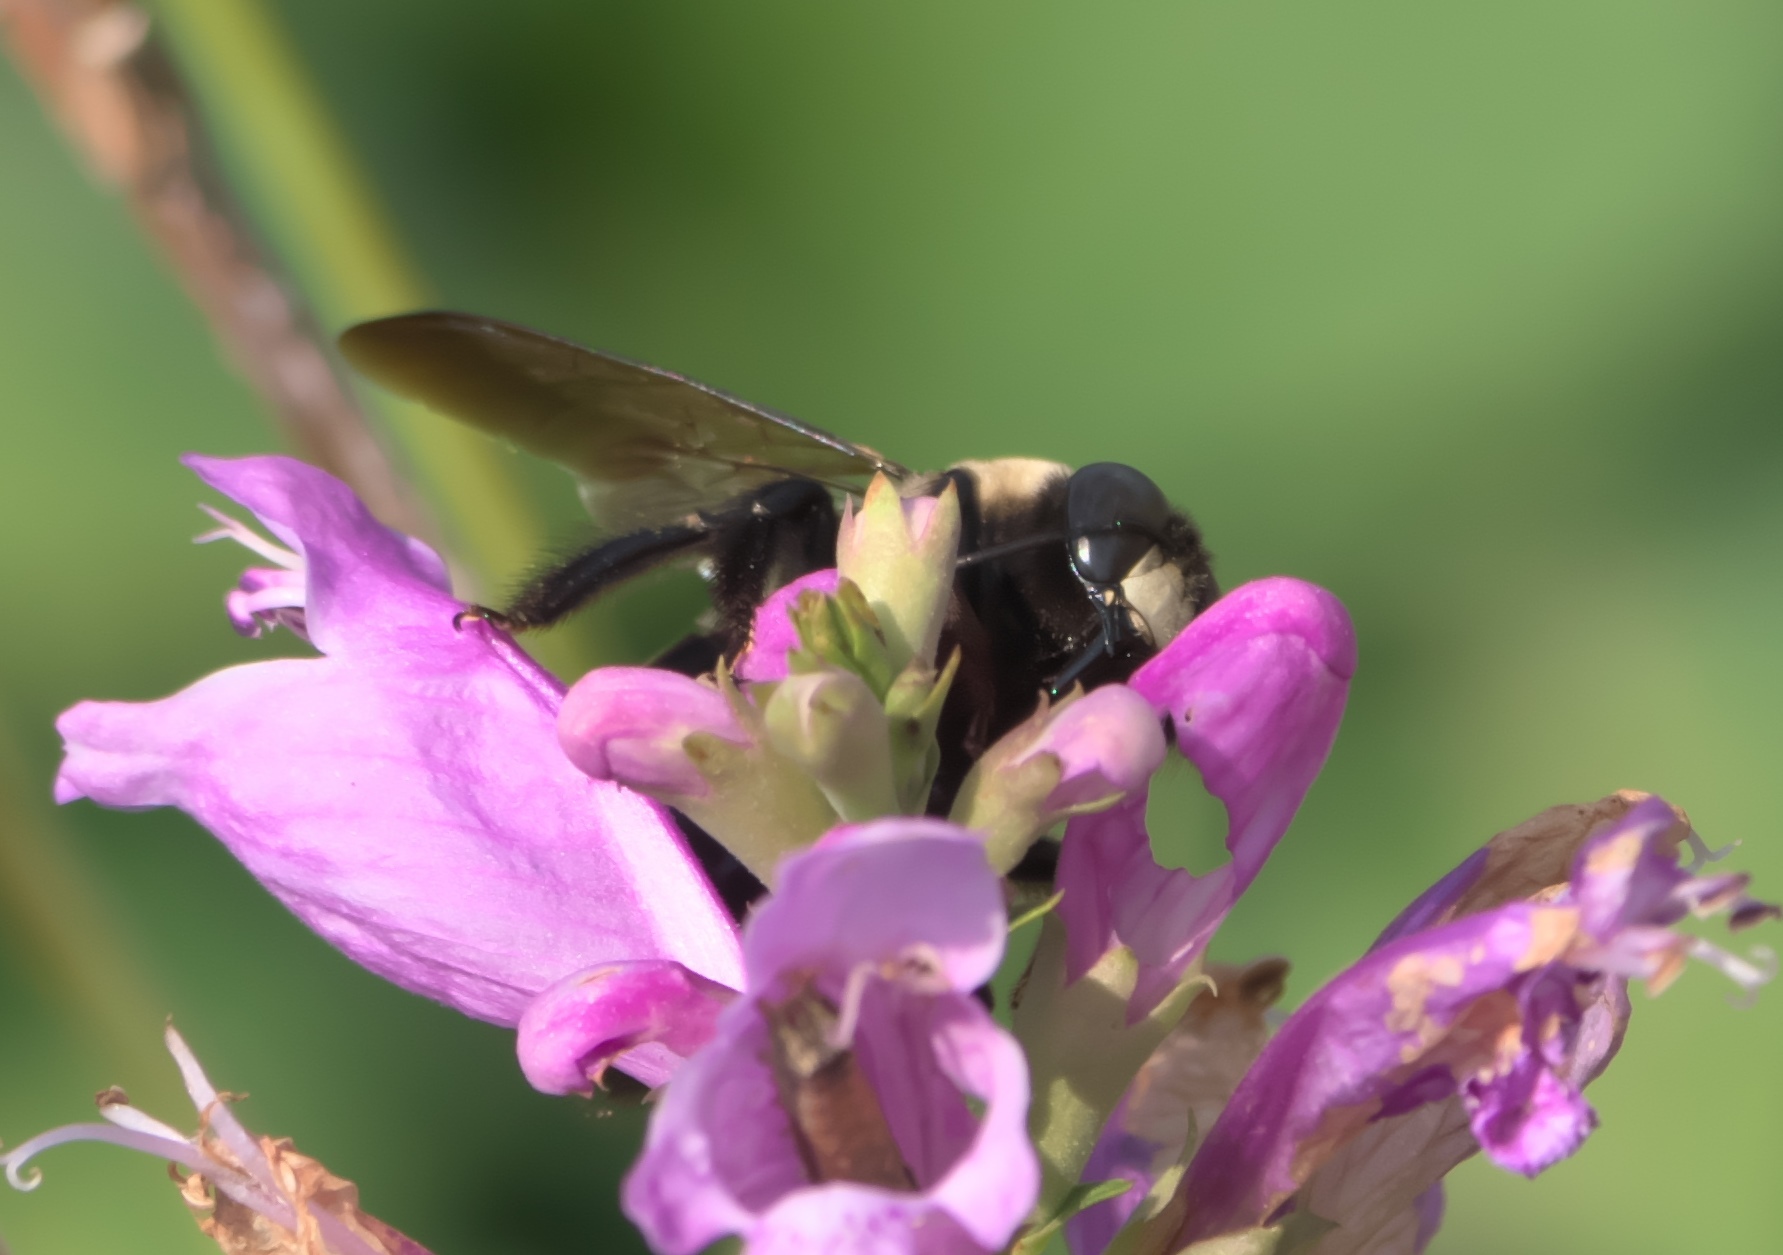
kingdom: Animalia
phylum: Arthropoda
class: Insecta
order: Hymenoptera
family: Apidae
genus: Xylocopa
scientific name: Xylocopa virginica
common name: Carpenter bee
